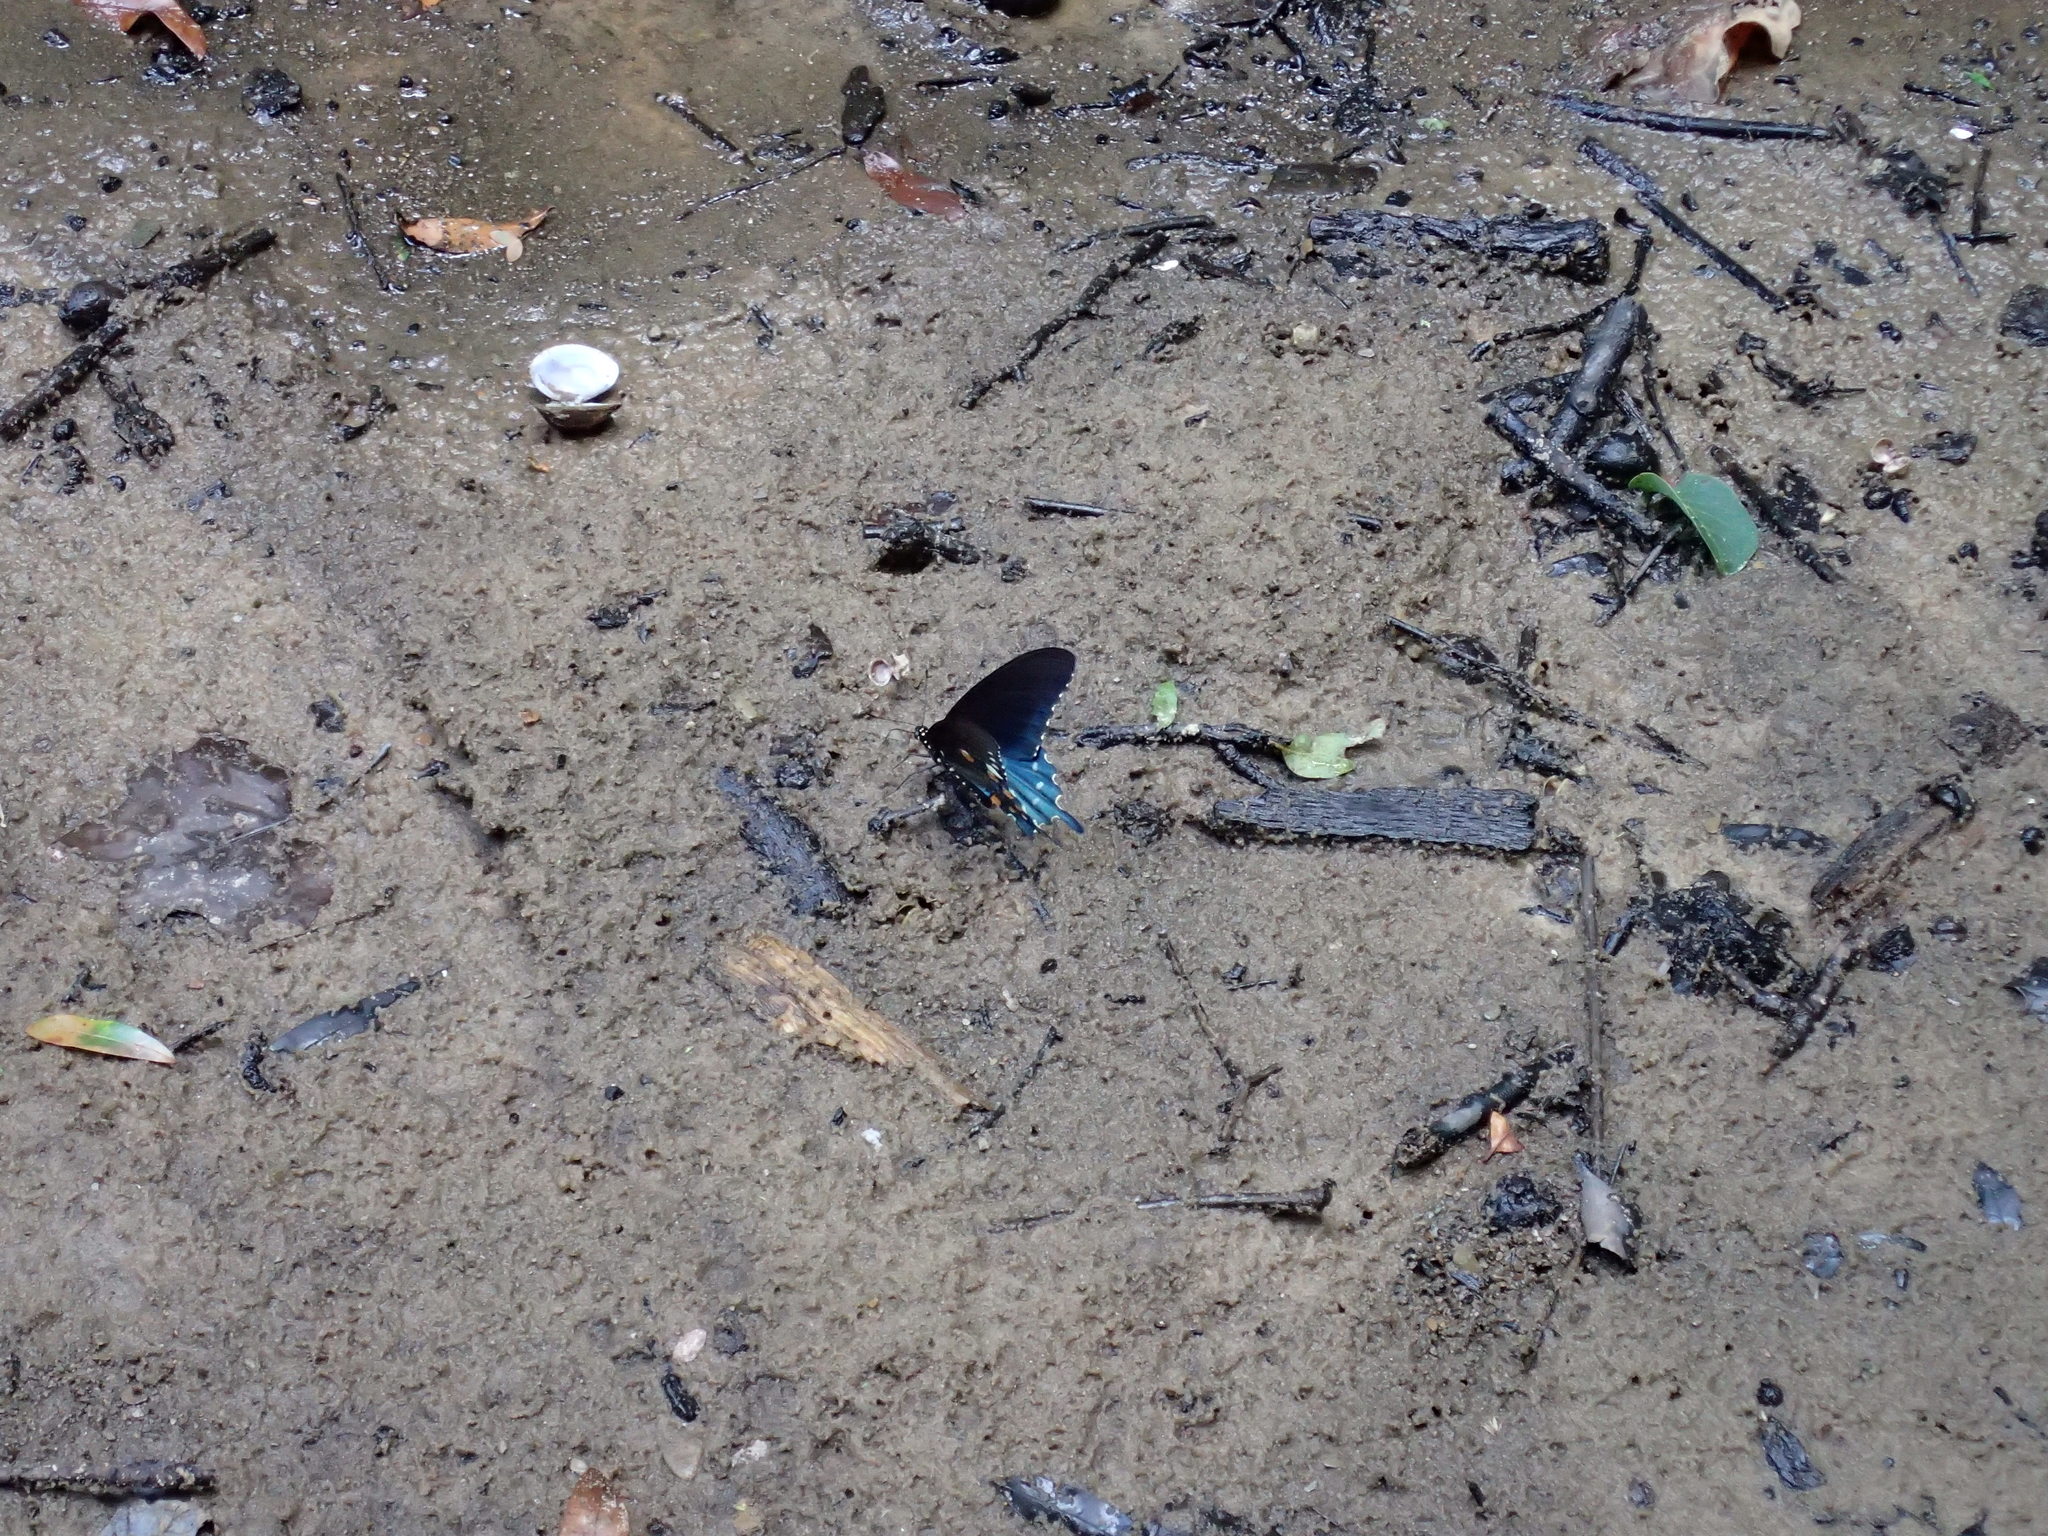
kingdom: Animalia
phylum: Arthropoda
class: Insecta
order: Lepidoptera
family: Papilionidae
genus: Battus
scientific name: Battus philenor
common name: Pipevine swallowtail
